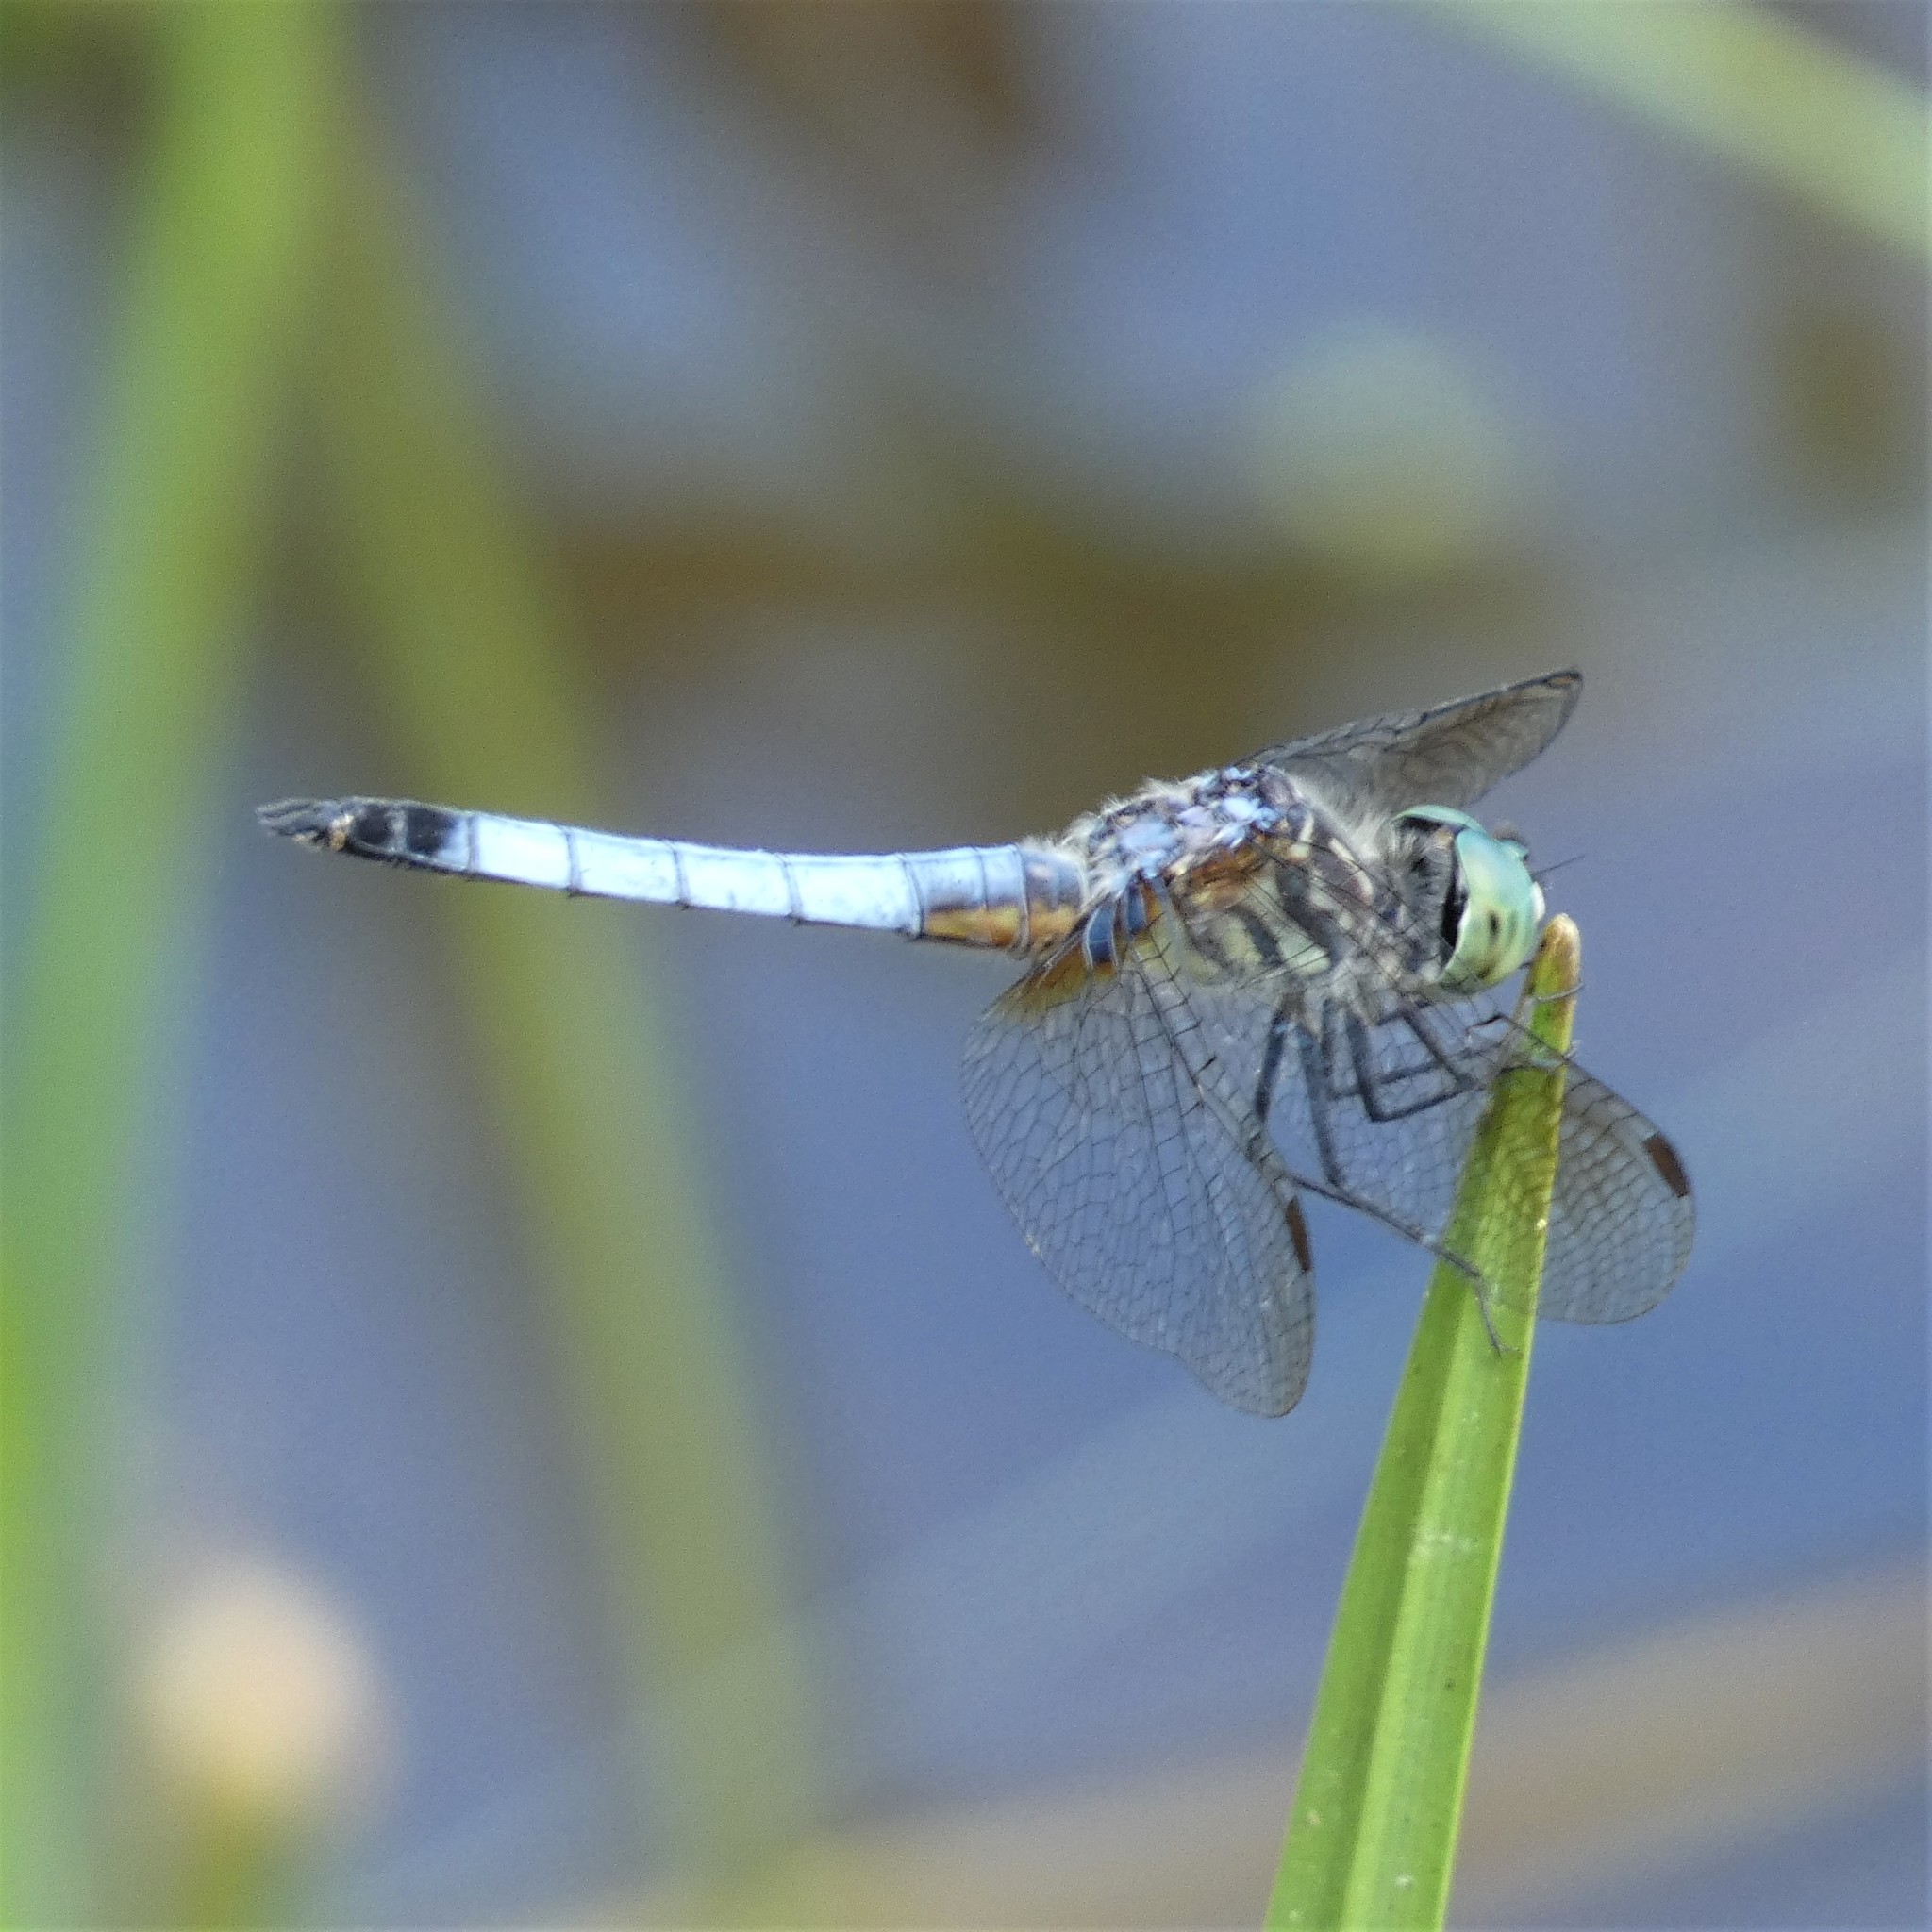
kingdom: Animalia
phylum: Arthropoda
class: Insecta
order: Odonata
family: Libellulidae
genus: Pachydiplax
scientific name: Pachydiplax longipennis
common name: Blue dasher
